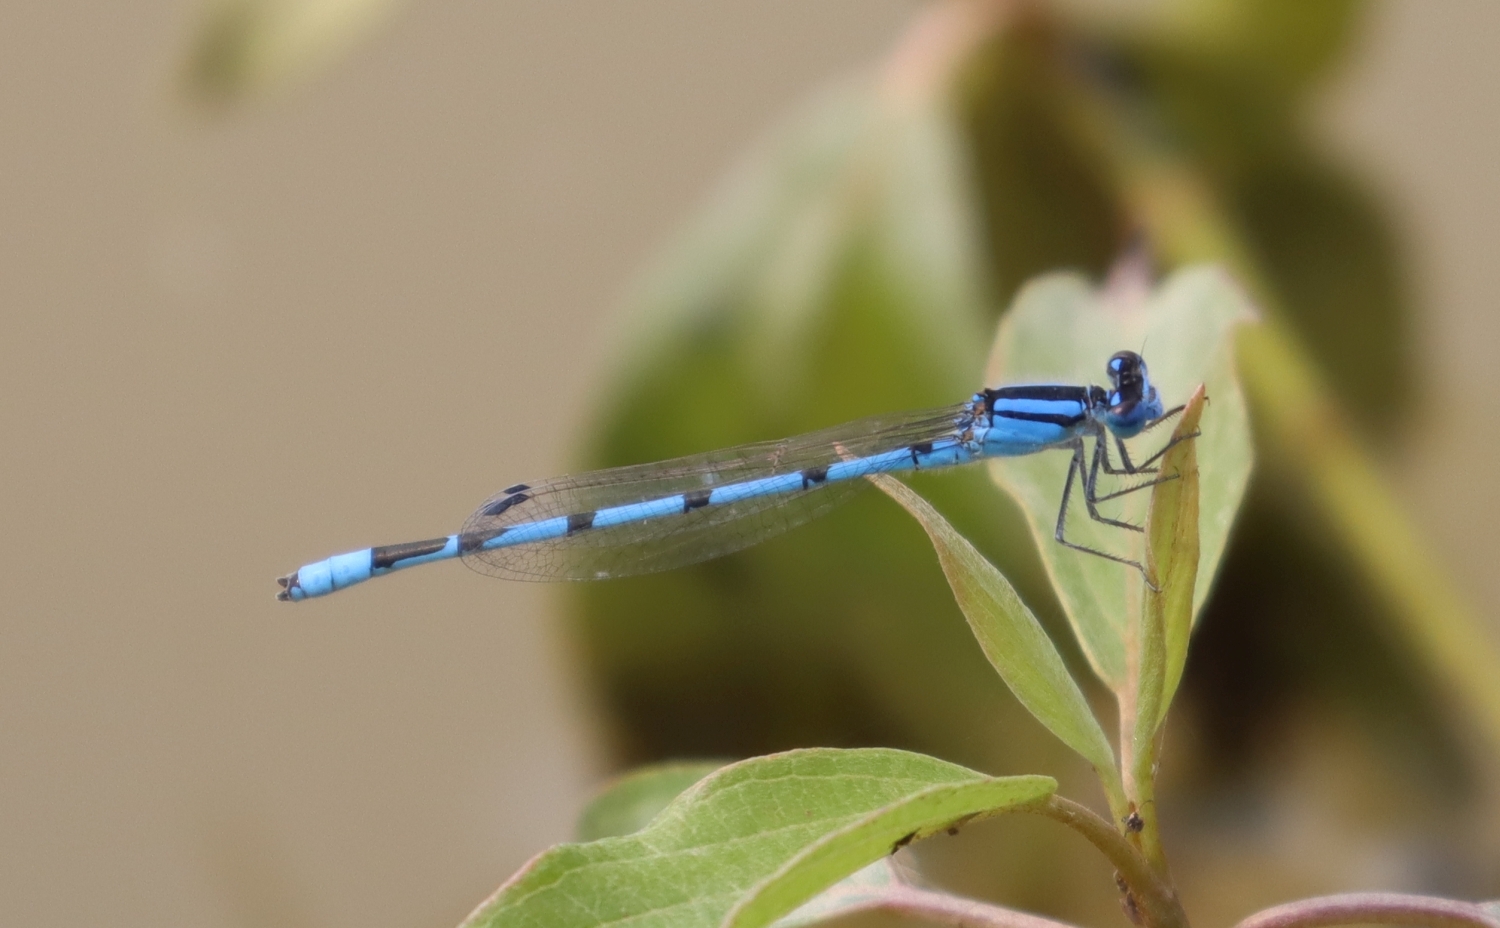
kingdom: Animalia
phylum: Arthropoda
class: Insecta
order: Odonata
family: Coenagrionidae
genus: Enallagma
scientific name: Enallagma civile
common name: Damselfly
